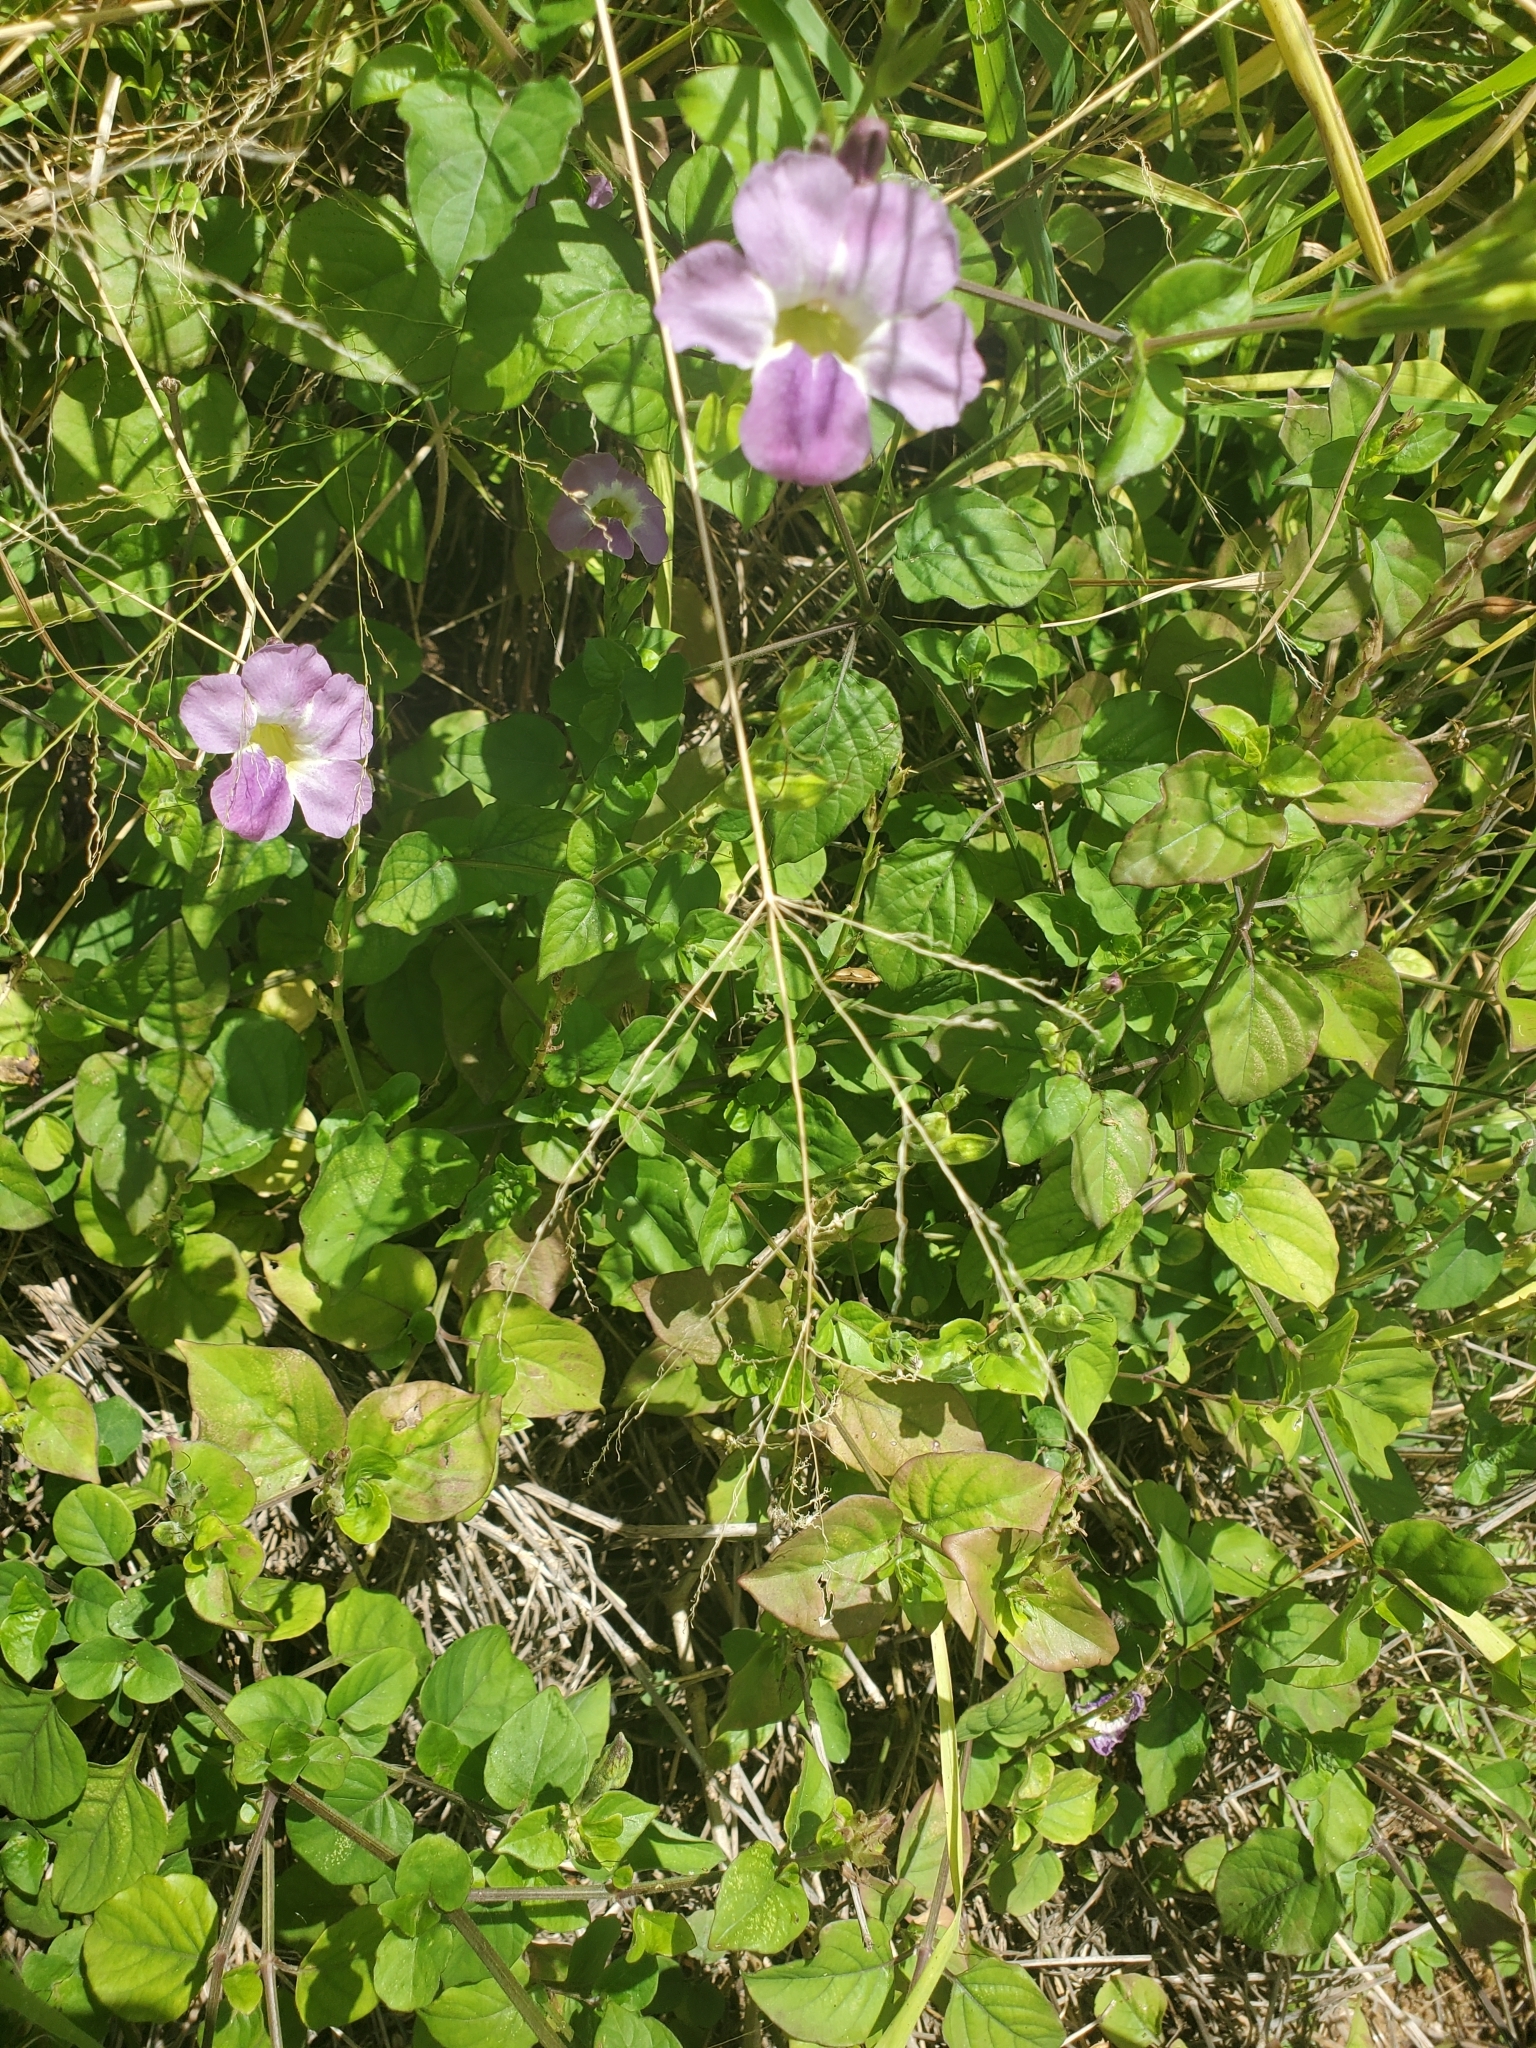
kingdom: Plantae
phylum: Tracheophyta
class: Magnoliopsida
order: Lamiales
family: Acanthaceae
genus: Asystasia
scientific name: Asystasia gangetica
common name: Chinese violet
